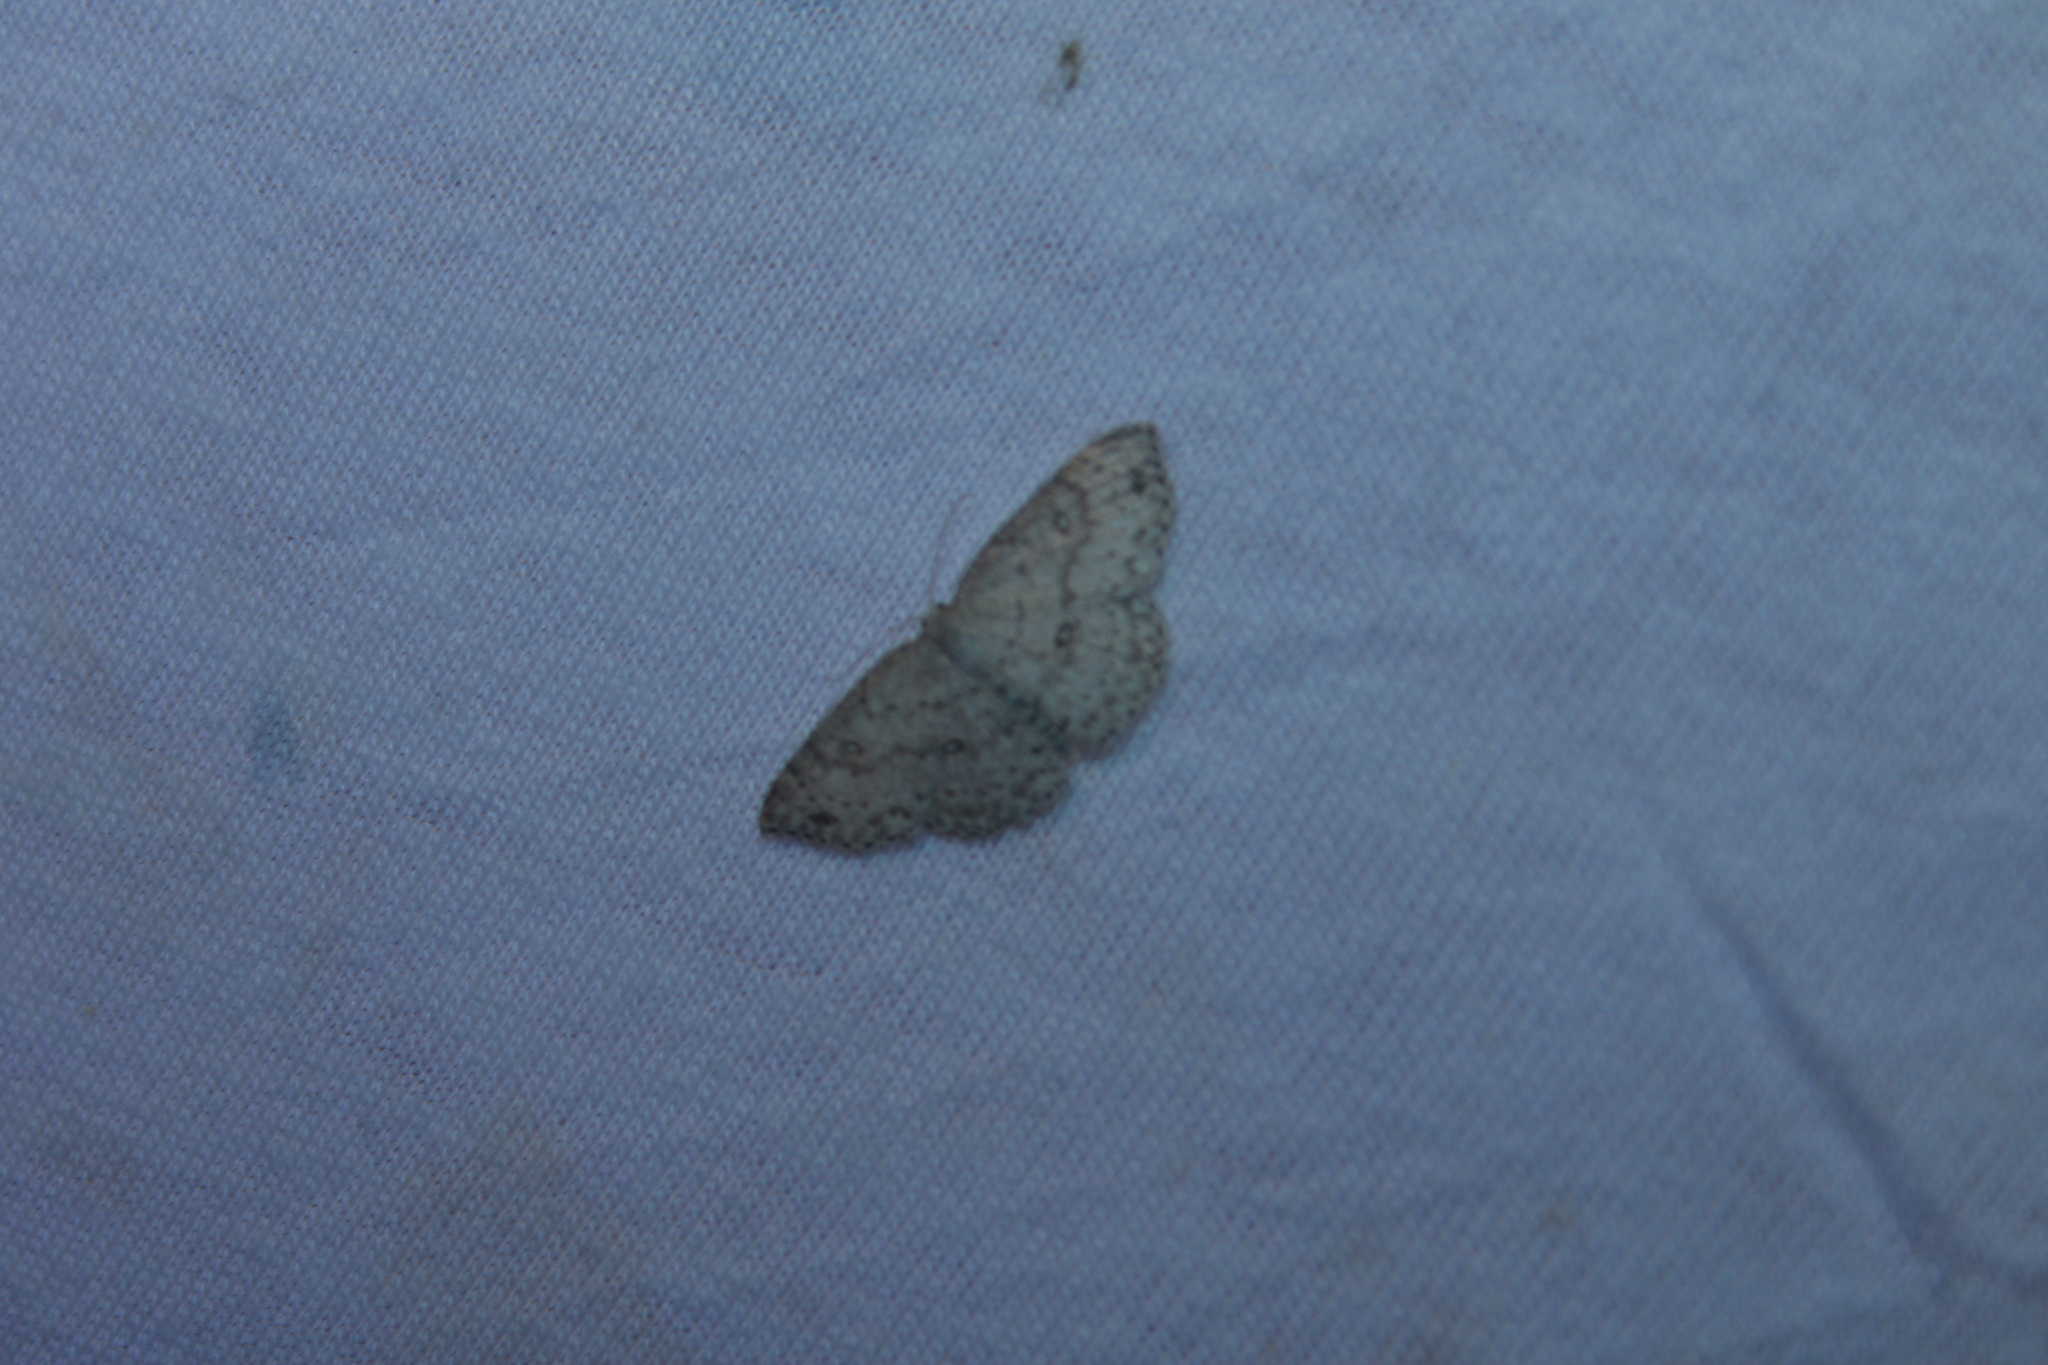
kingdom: Animalia
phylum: Arthropoda
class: Insecta
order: Lepidoptera
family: Geometridae
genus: Cyclophora
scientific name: Cyclophora pendulinaria
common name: Sweet fern geometer
